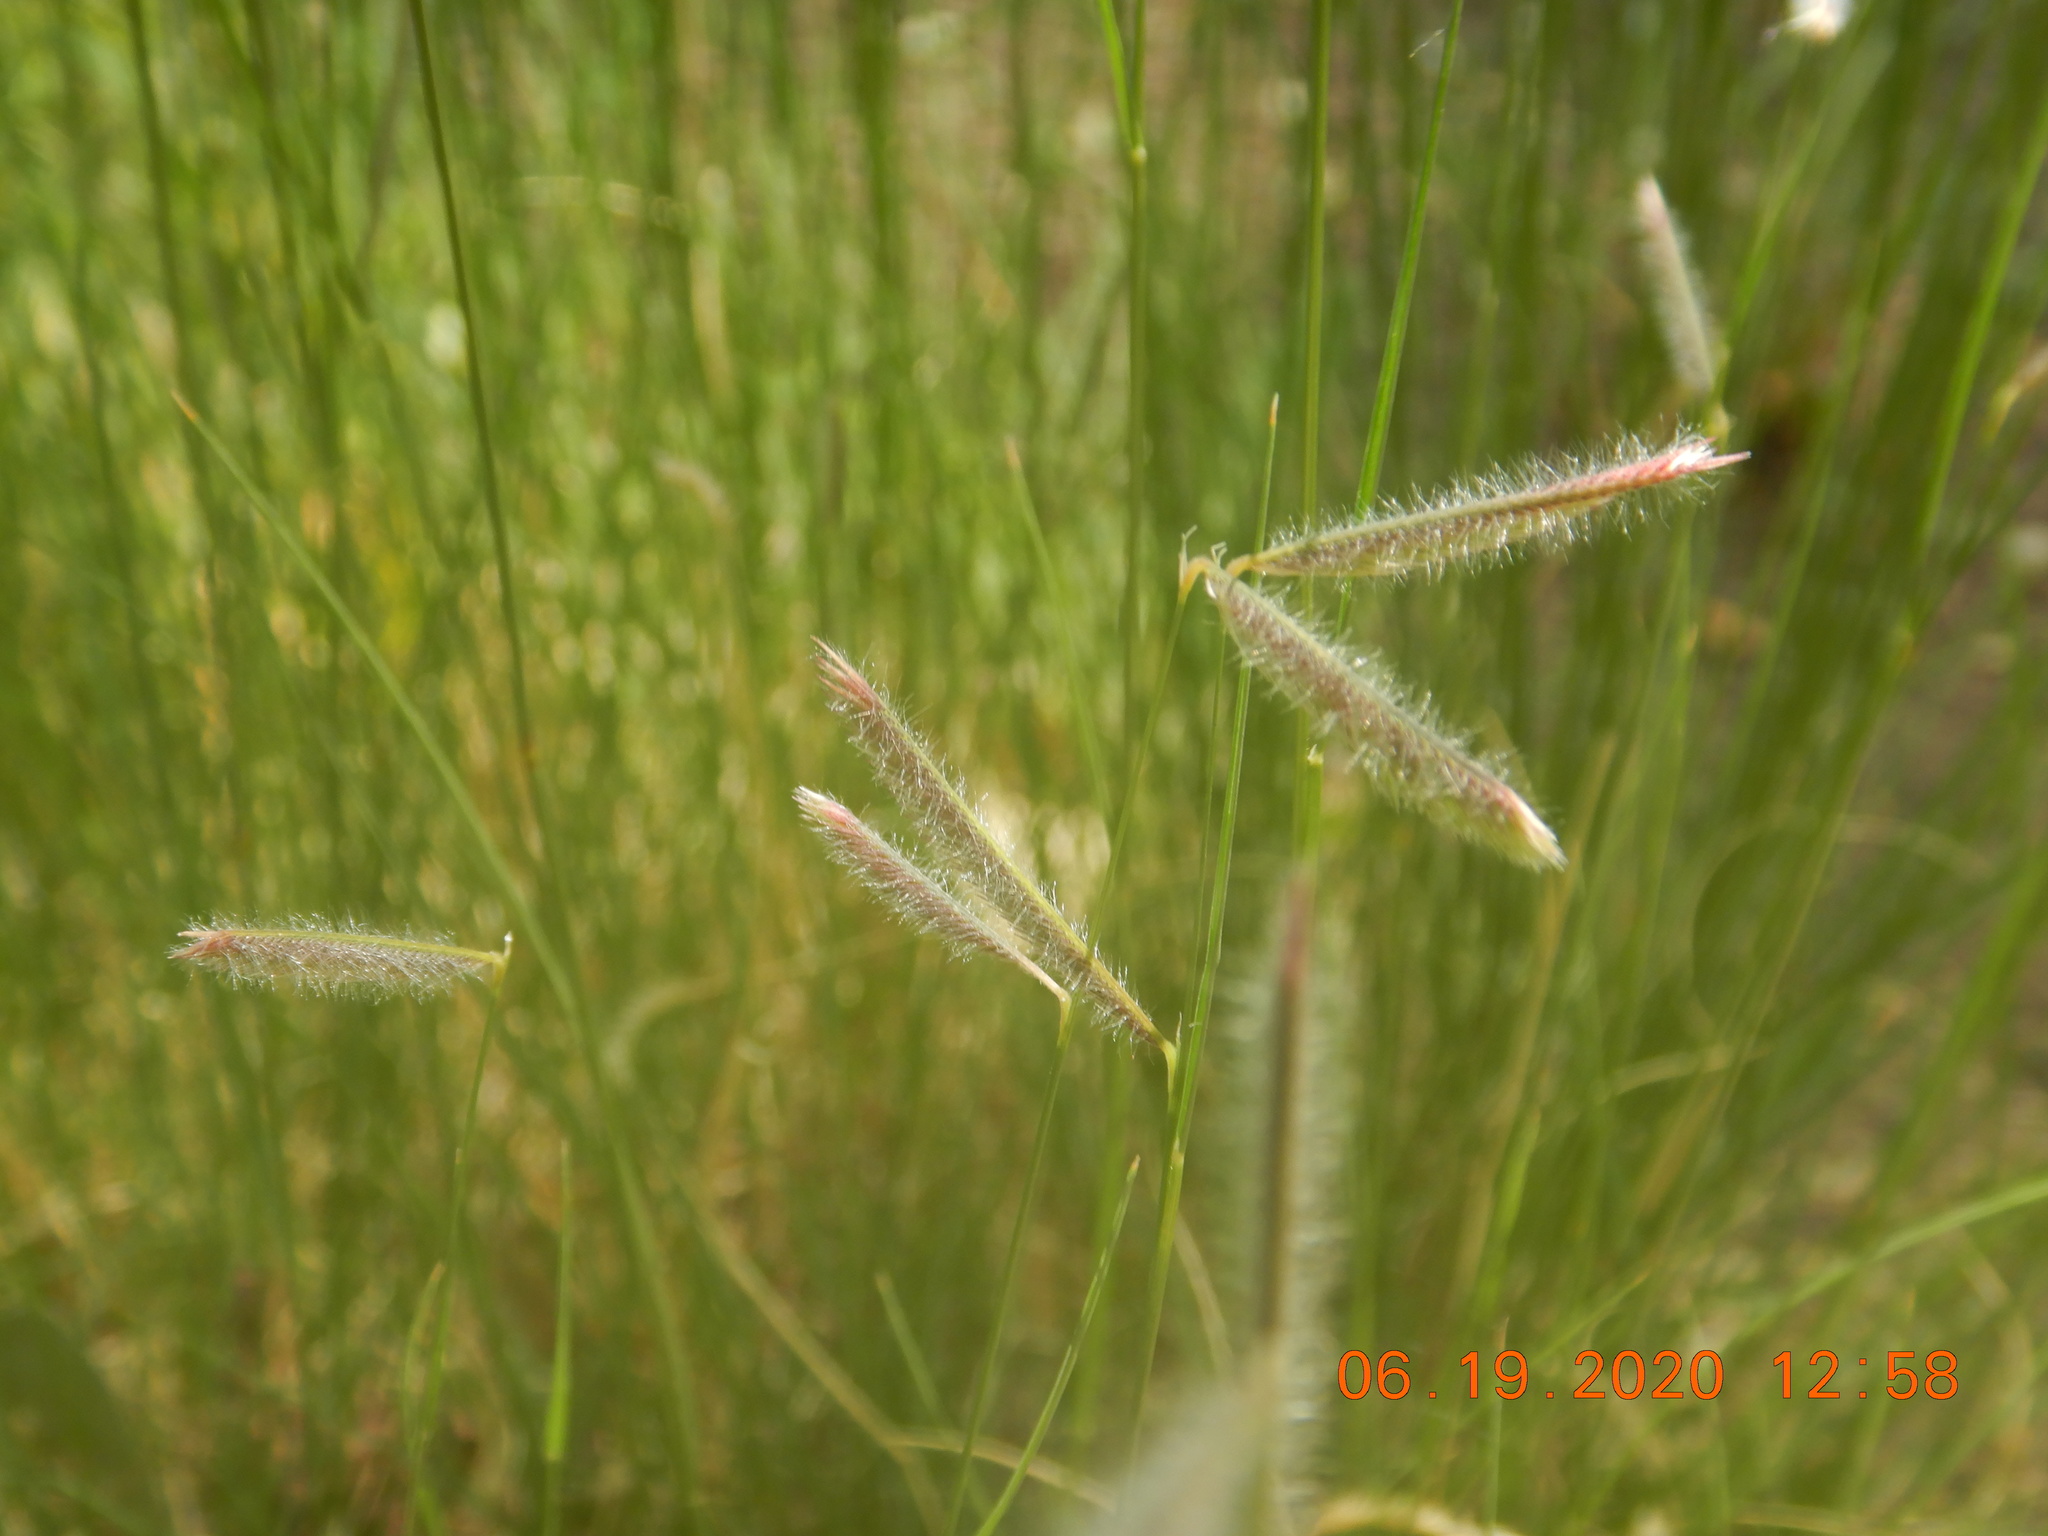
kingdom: Plantae
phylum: Tracheophyta
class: Liliopsida
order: Poales
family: Poaceae
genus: Bouteloua
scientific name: Bouteloua gracilis
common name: Blue grama
